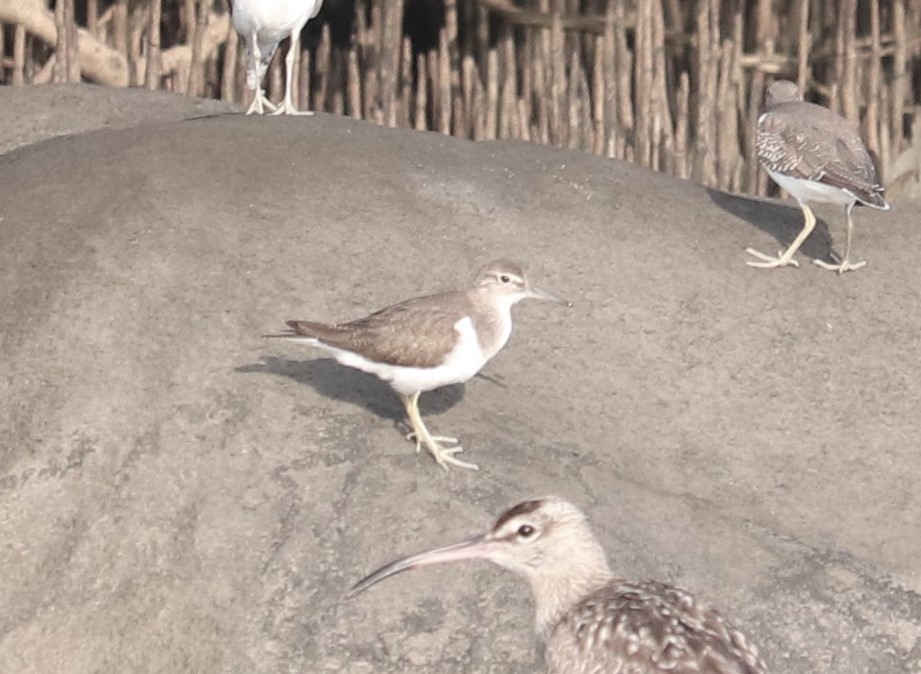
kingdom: Animalia
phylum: Chordata
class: Aves
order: Charadriiformes
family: Scolopacidae
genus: Actitis
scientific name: Actitis hypoleucos
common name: Common sandpiper
